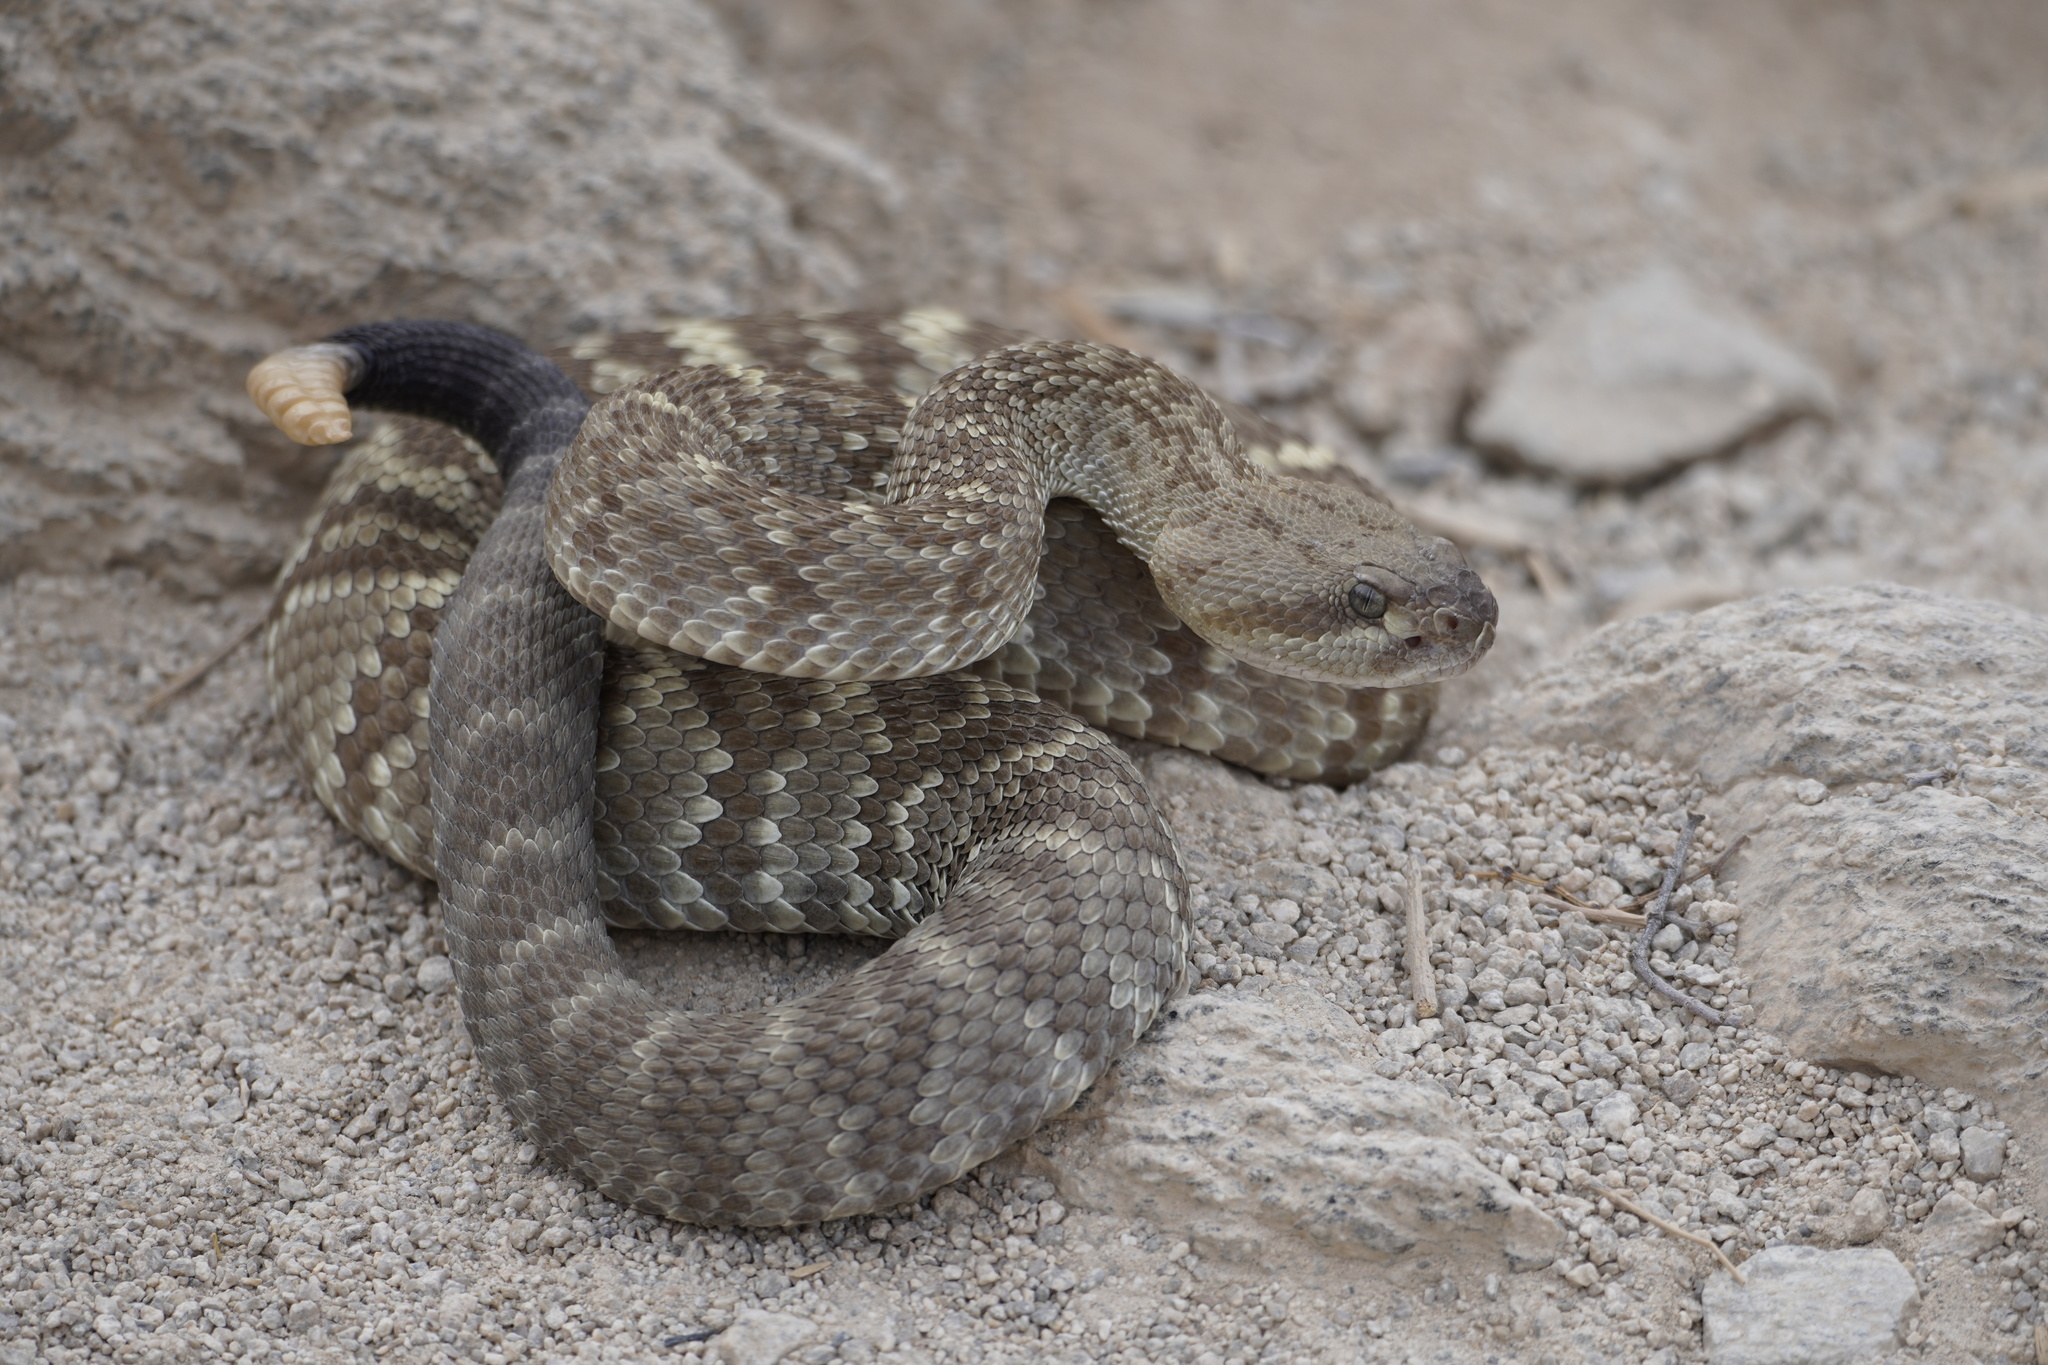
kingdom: Animalia
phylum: Chordata
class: Squamata
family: Viperidae
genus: Crotalus
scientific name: Crotalus molossus
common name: Black tailed rattlesnake
